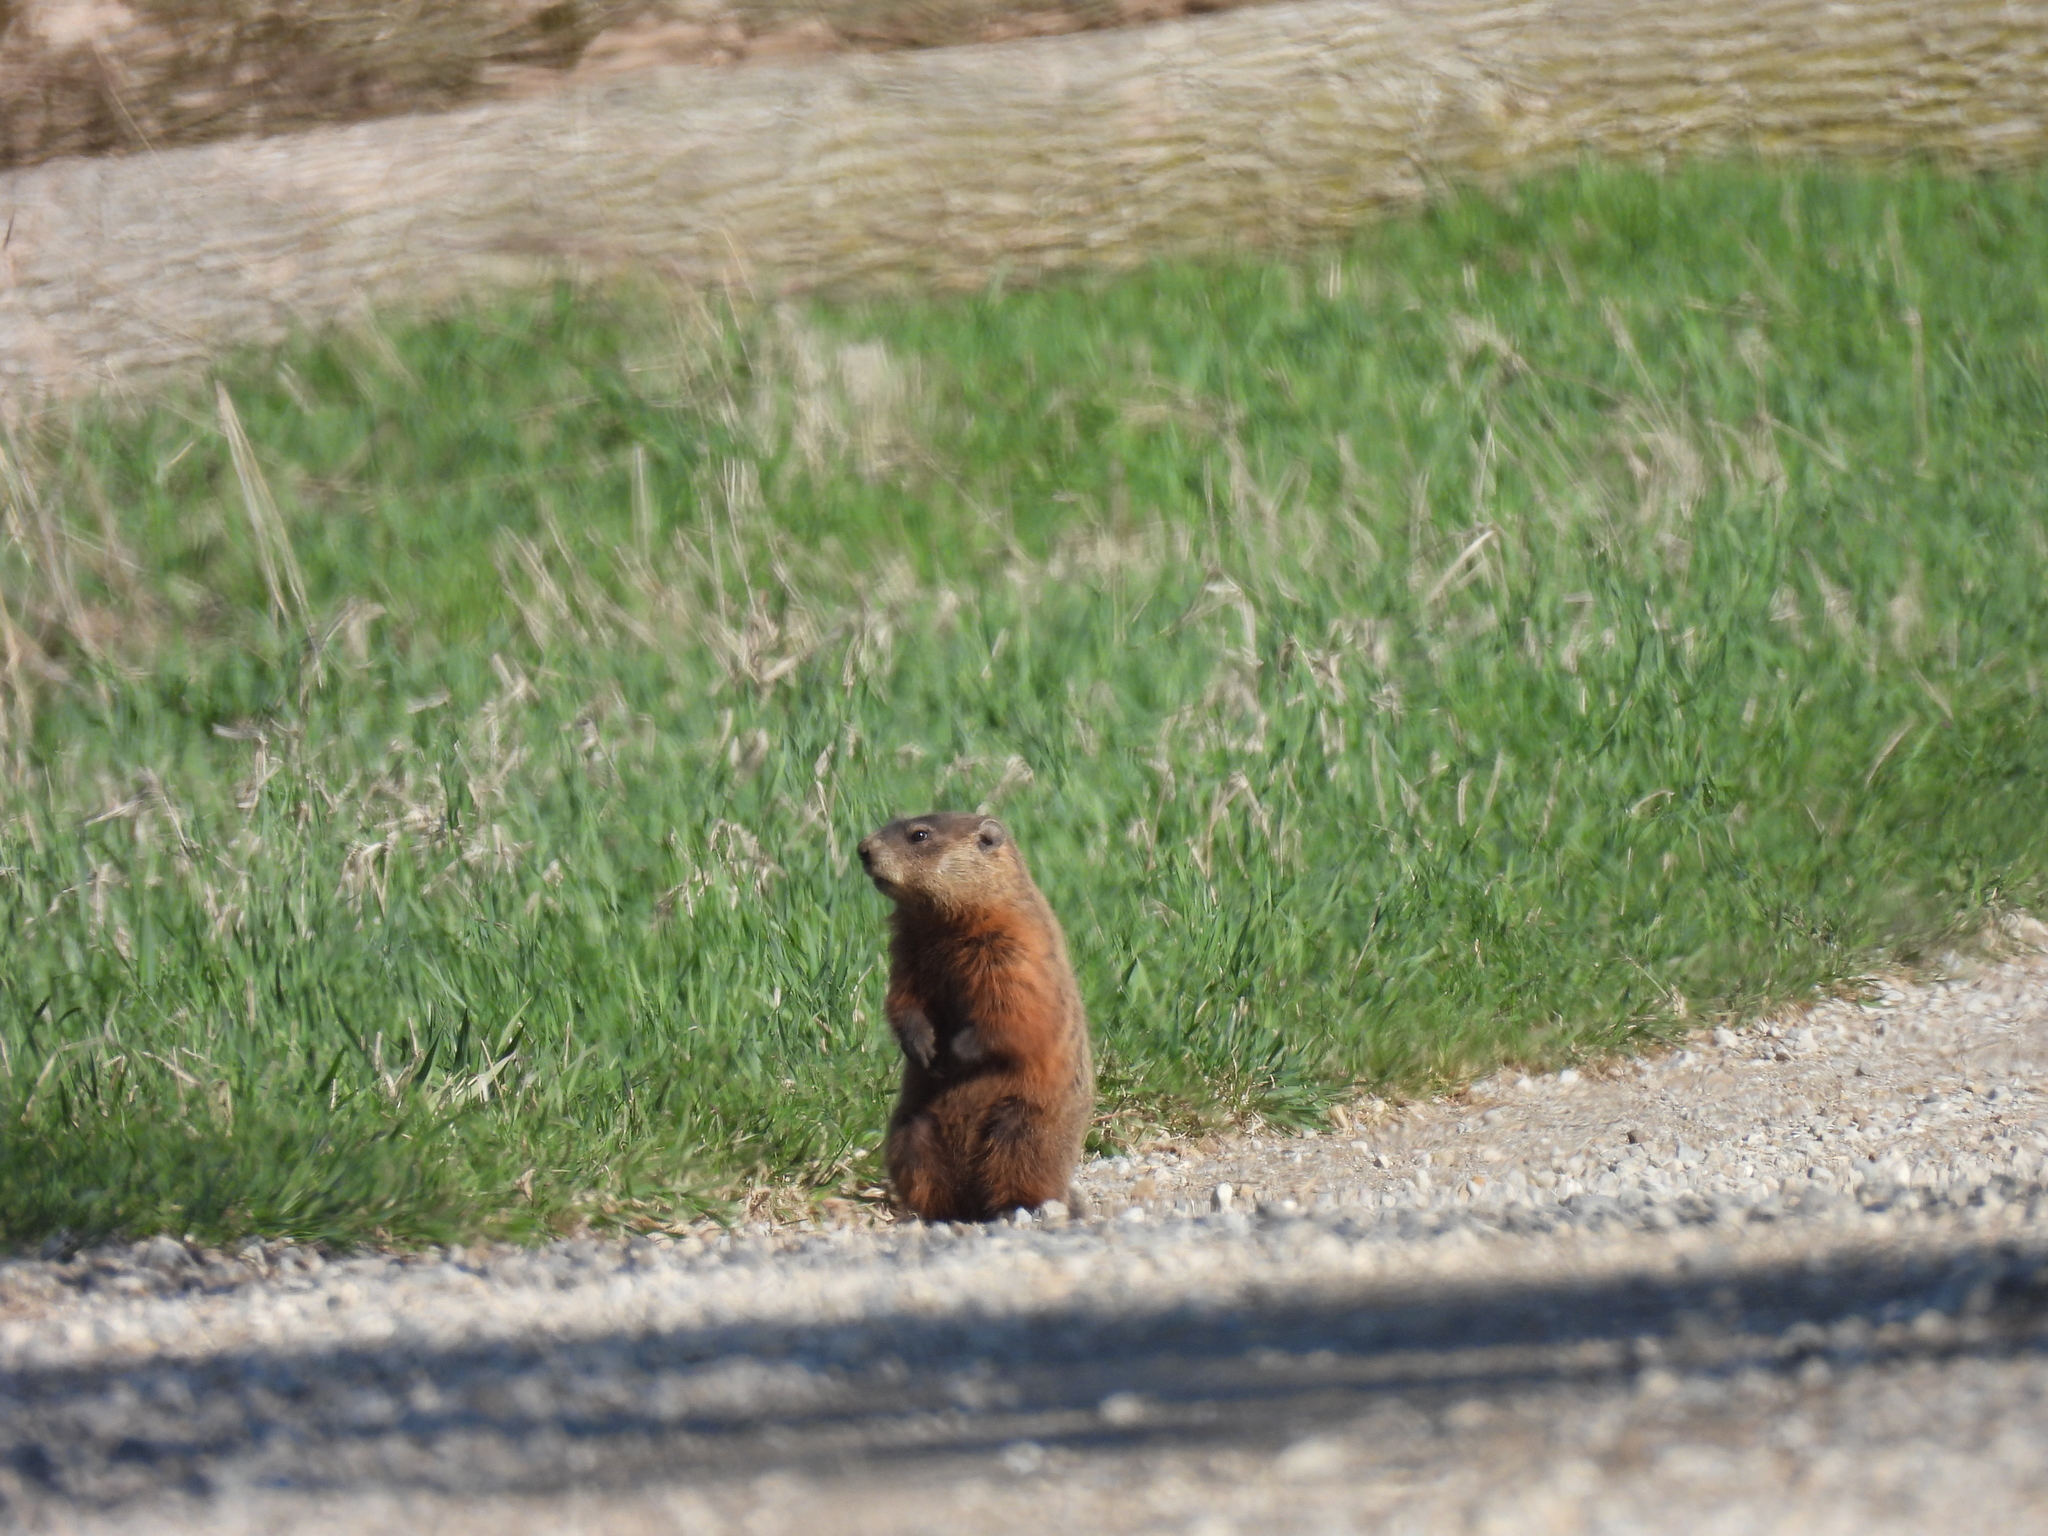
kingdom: Animalia
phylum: Chordata
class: Mammalia
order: Rodentia
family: Sciuridae
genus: Marmota
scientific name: Marmota monax
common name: Groundhog
